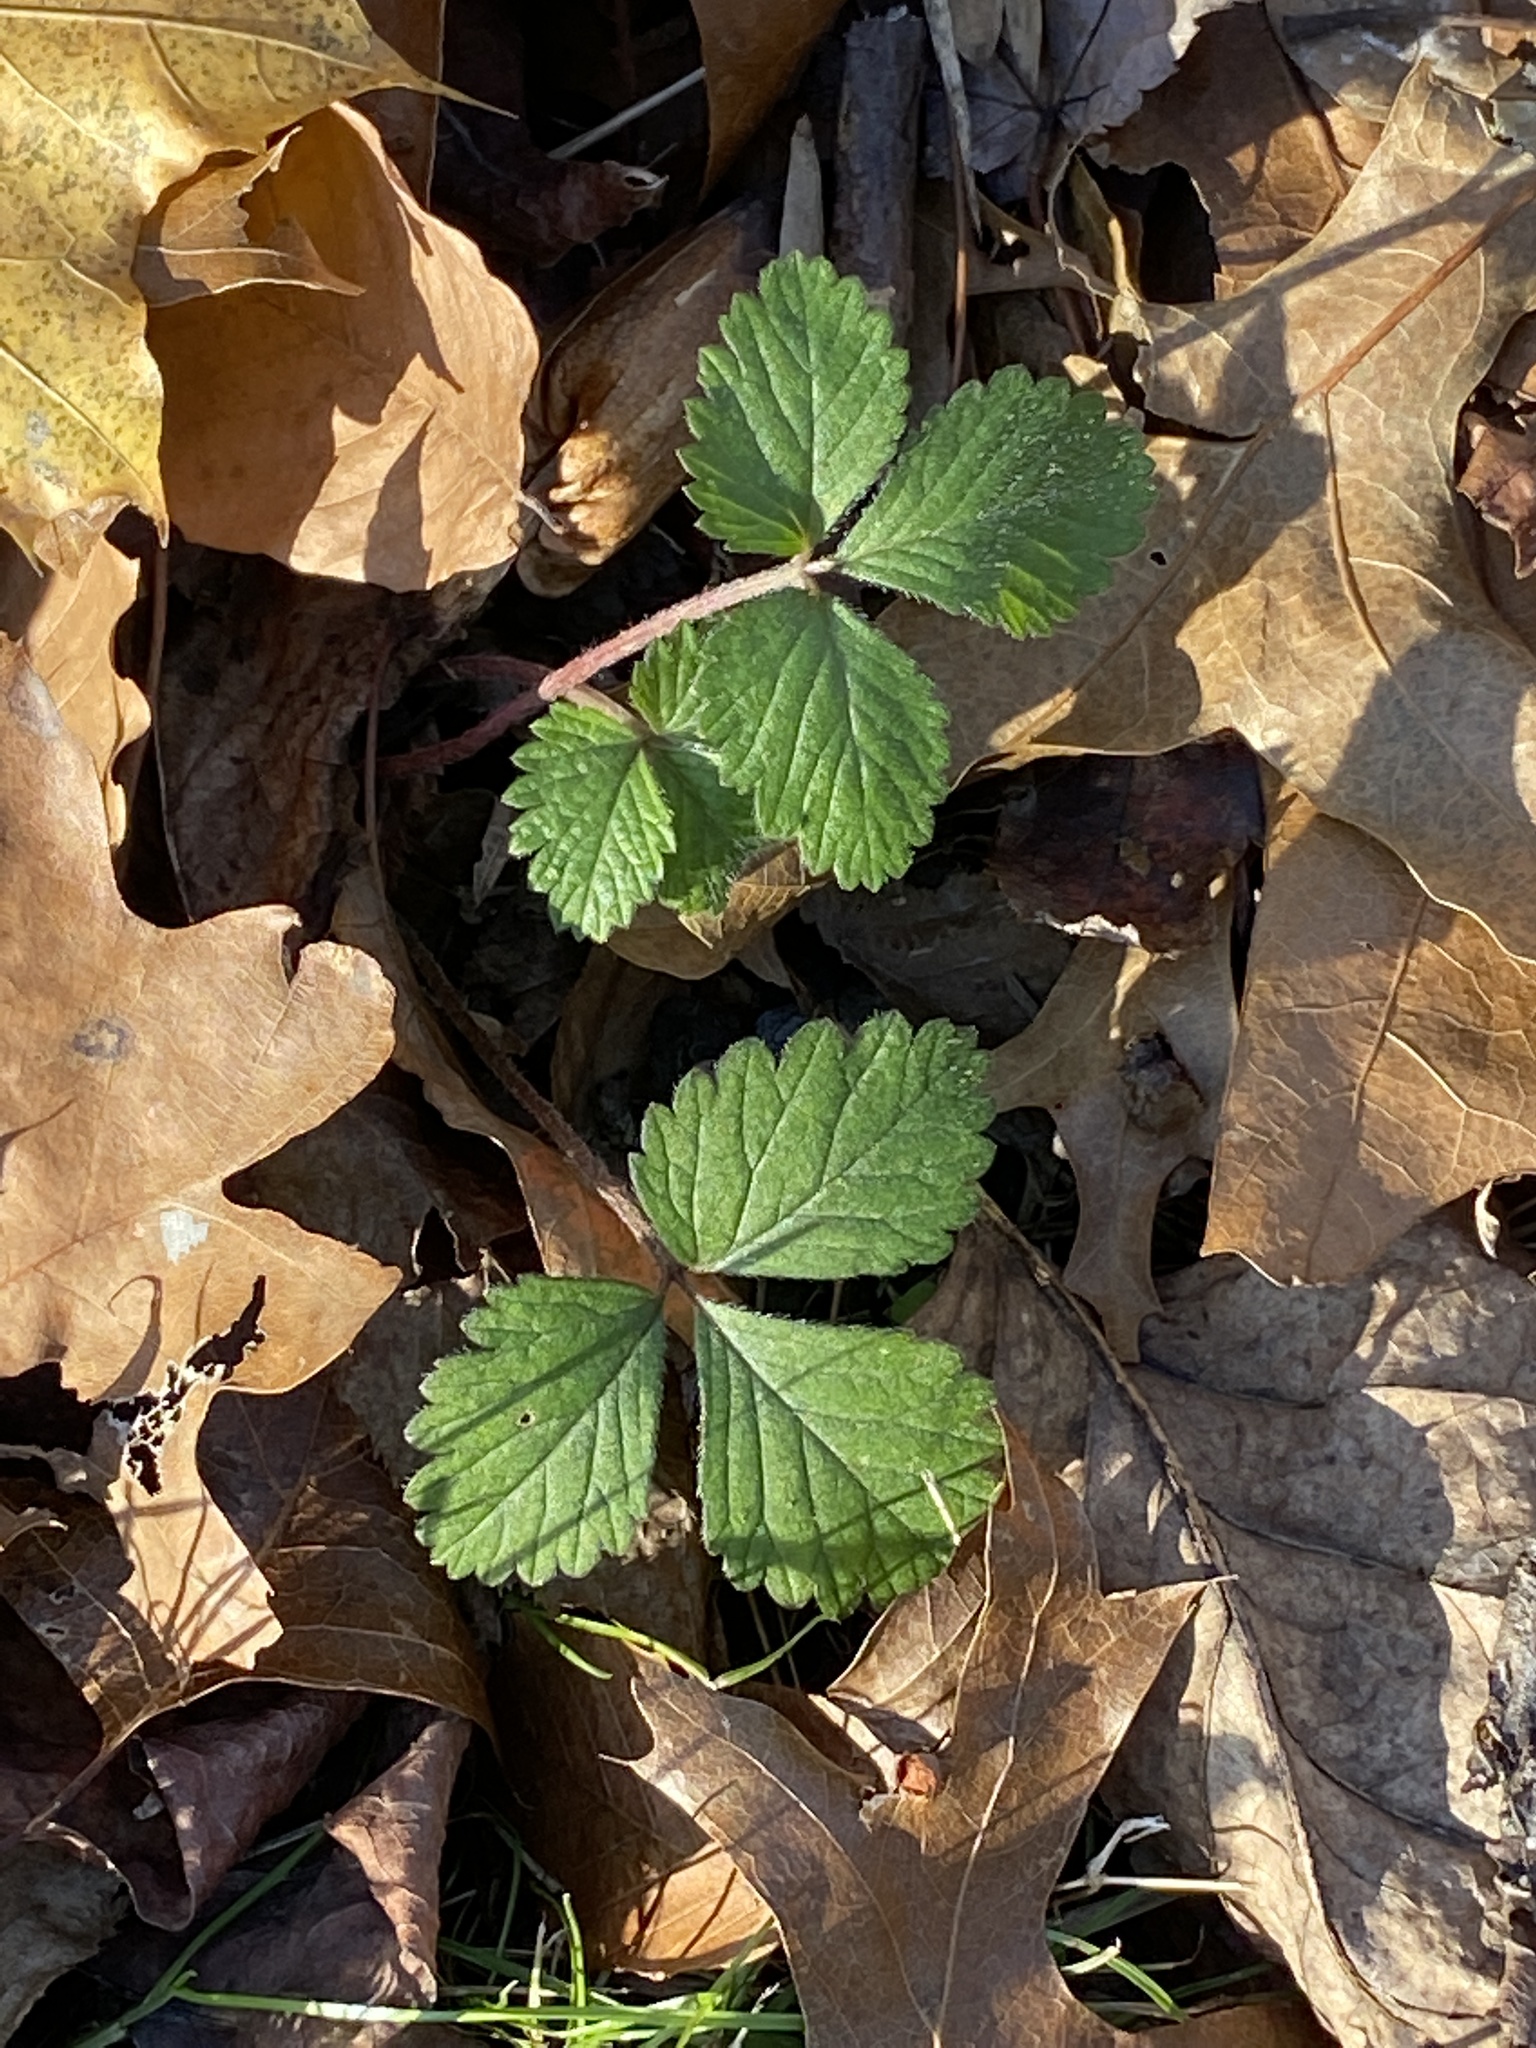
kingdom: Plantae
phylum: Tracheophyta
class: Magnoliopsida
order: Rosales
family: Rosaceae
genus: Potentilla
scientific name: Potentilla indica
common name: Yellow-flowered strawberry
